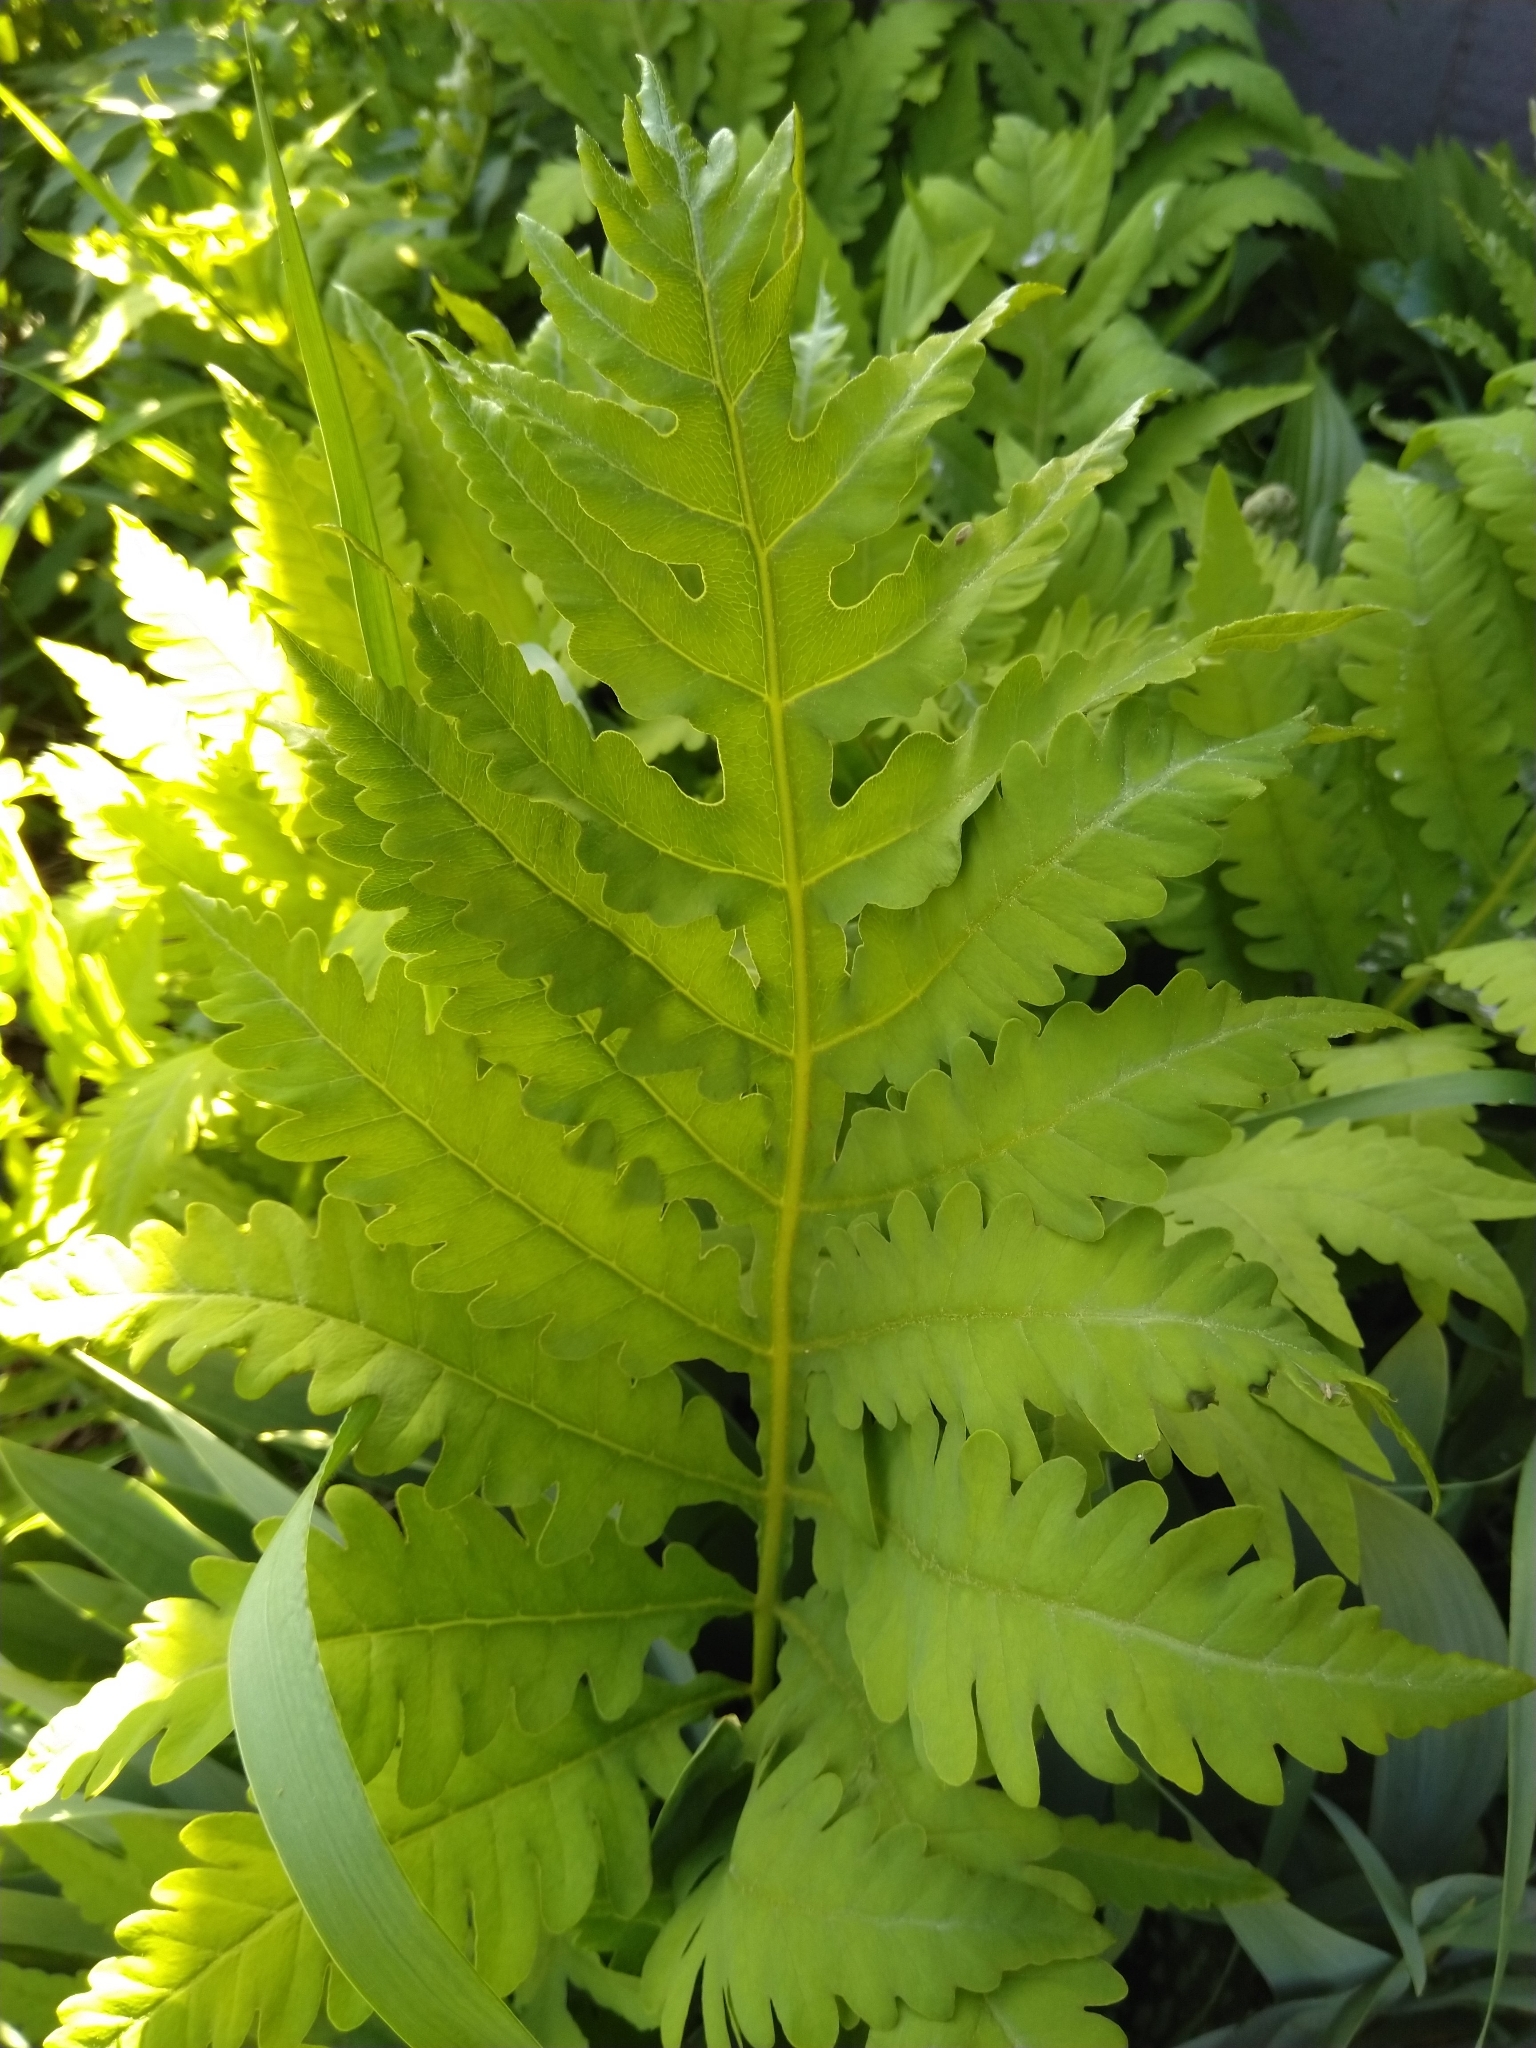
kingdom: Plantae
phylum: Tracheophyta
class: Polypodiopsida
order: Polypodiales
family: Onocleaceae
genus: Onoclea
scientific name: Onoclea sensibilis
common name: Sensitive fern
